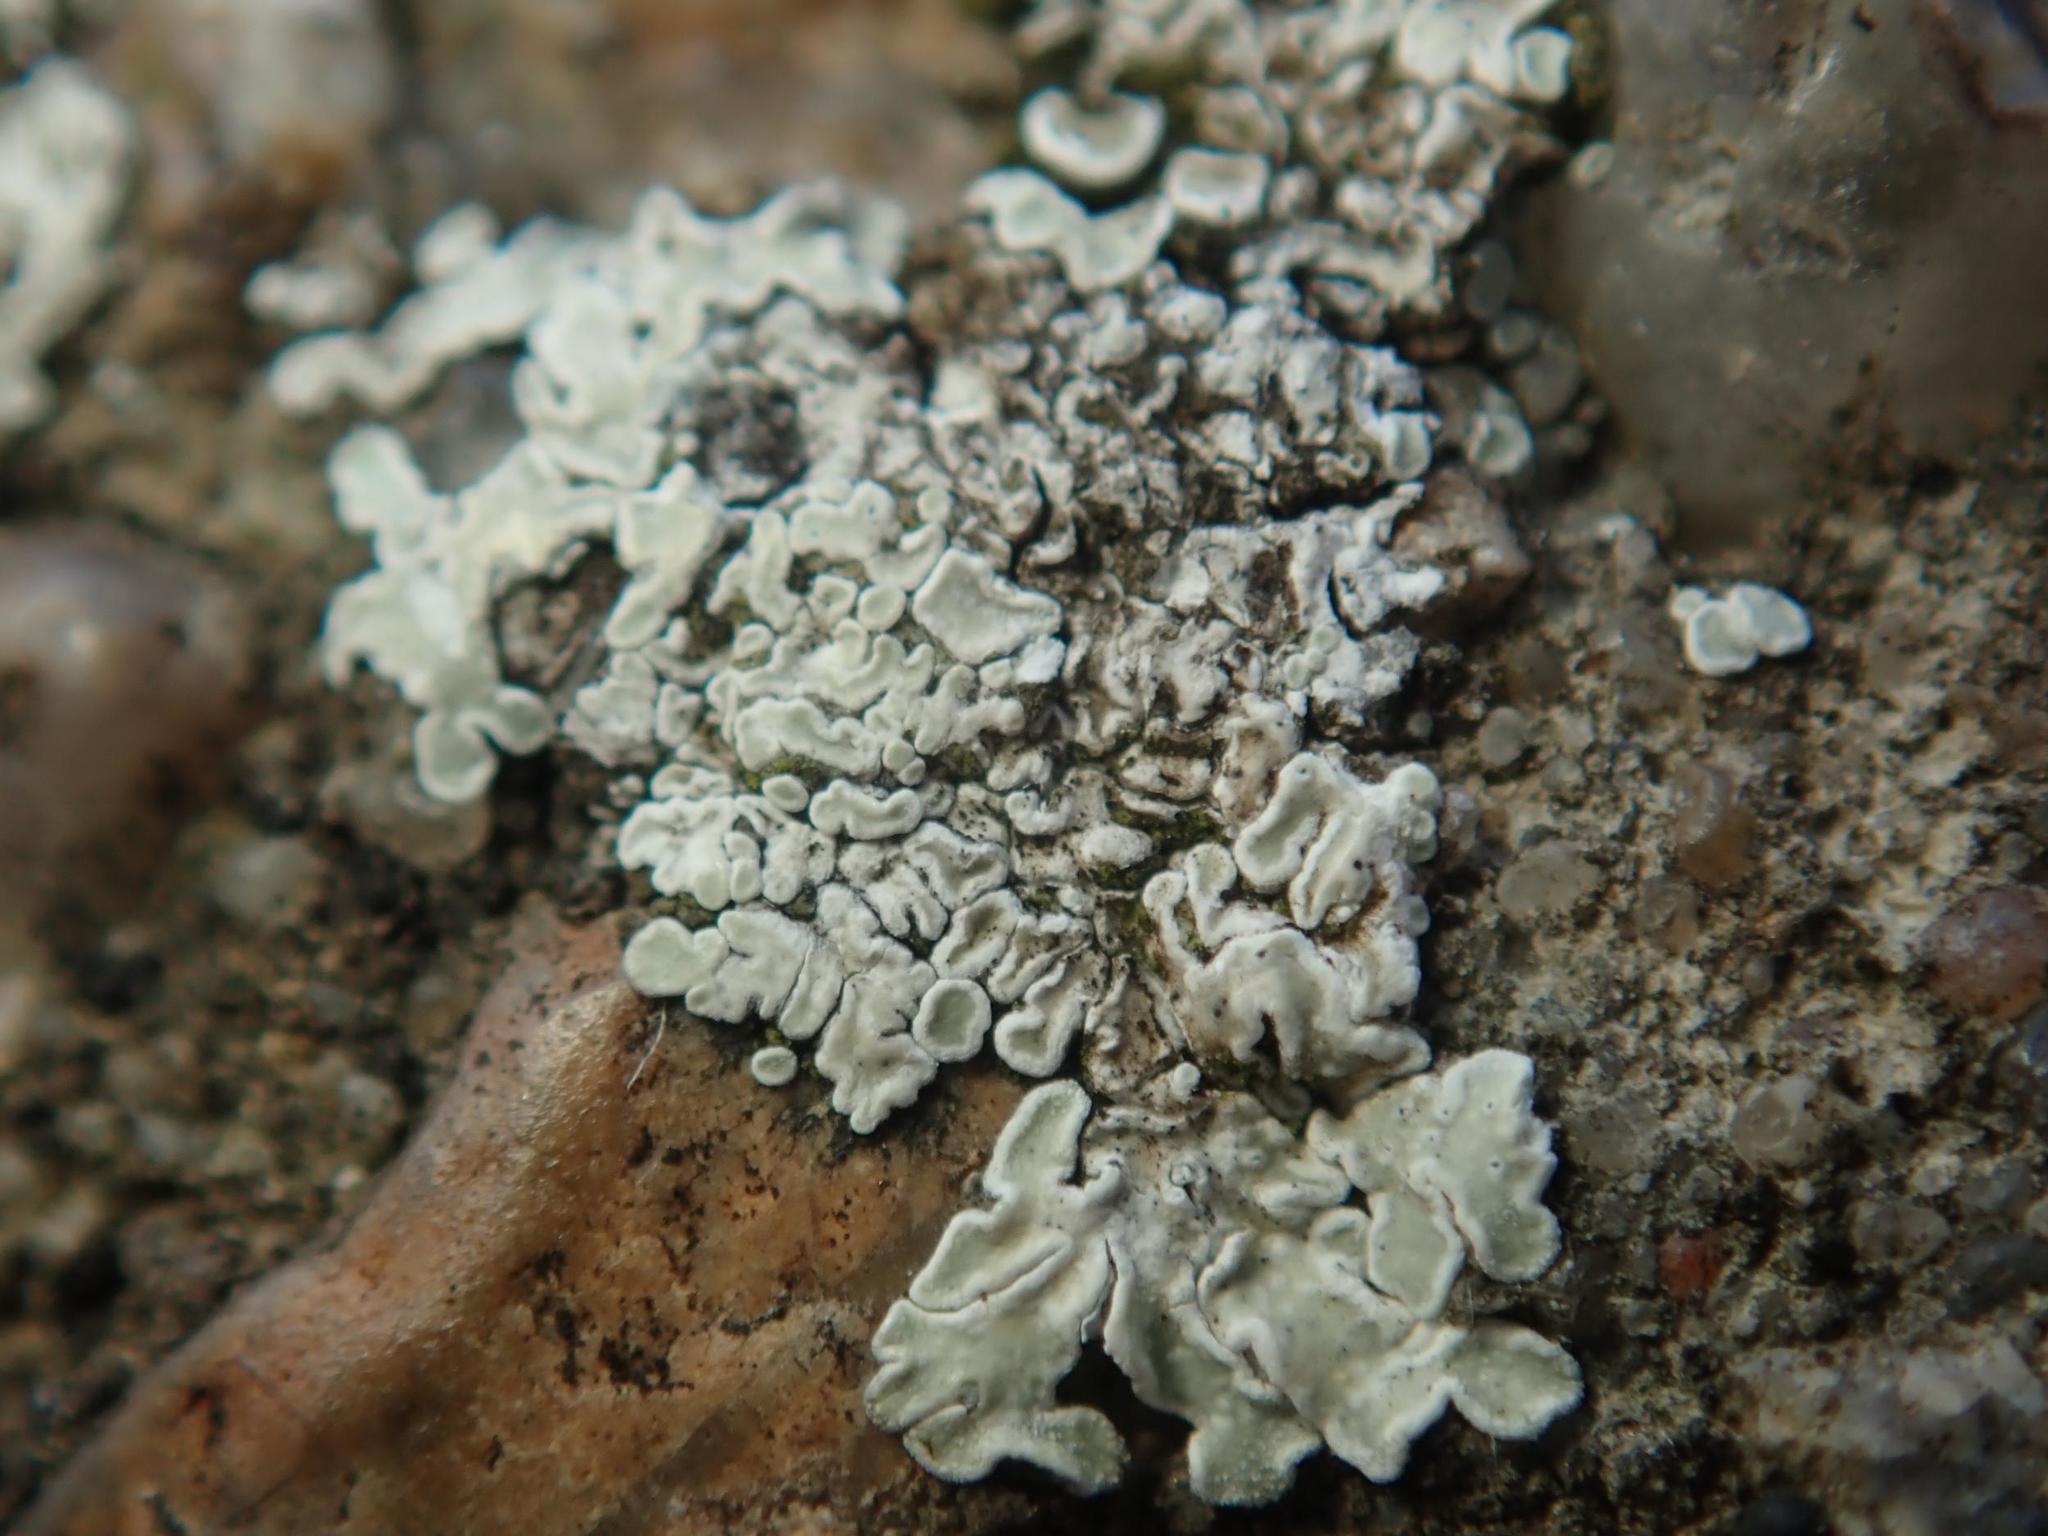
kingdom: Fungi
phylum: Ascomycota
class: Lecanoromycetes
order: Lecanorales
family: Lecanoraceae
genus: Protoparmeliopsis
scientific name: Protoparmeliopsis muralis
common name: Stonewall rim lichen
